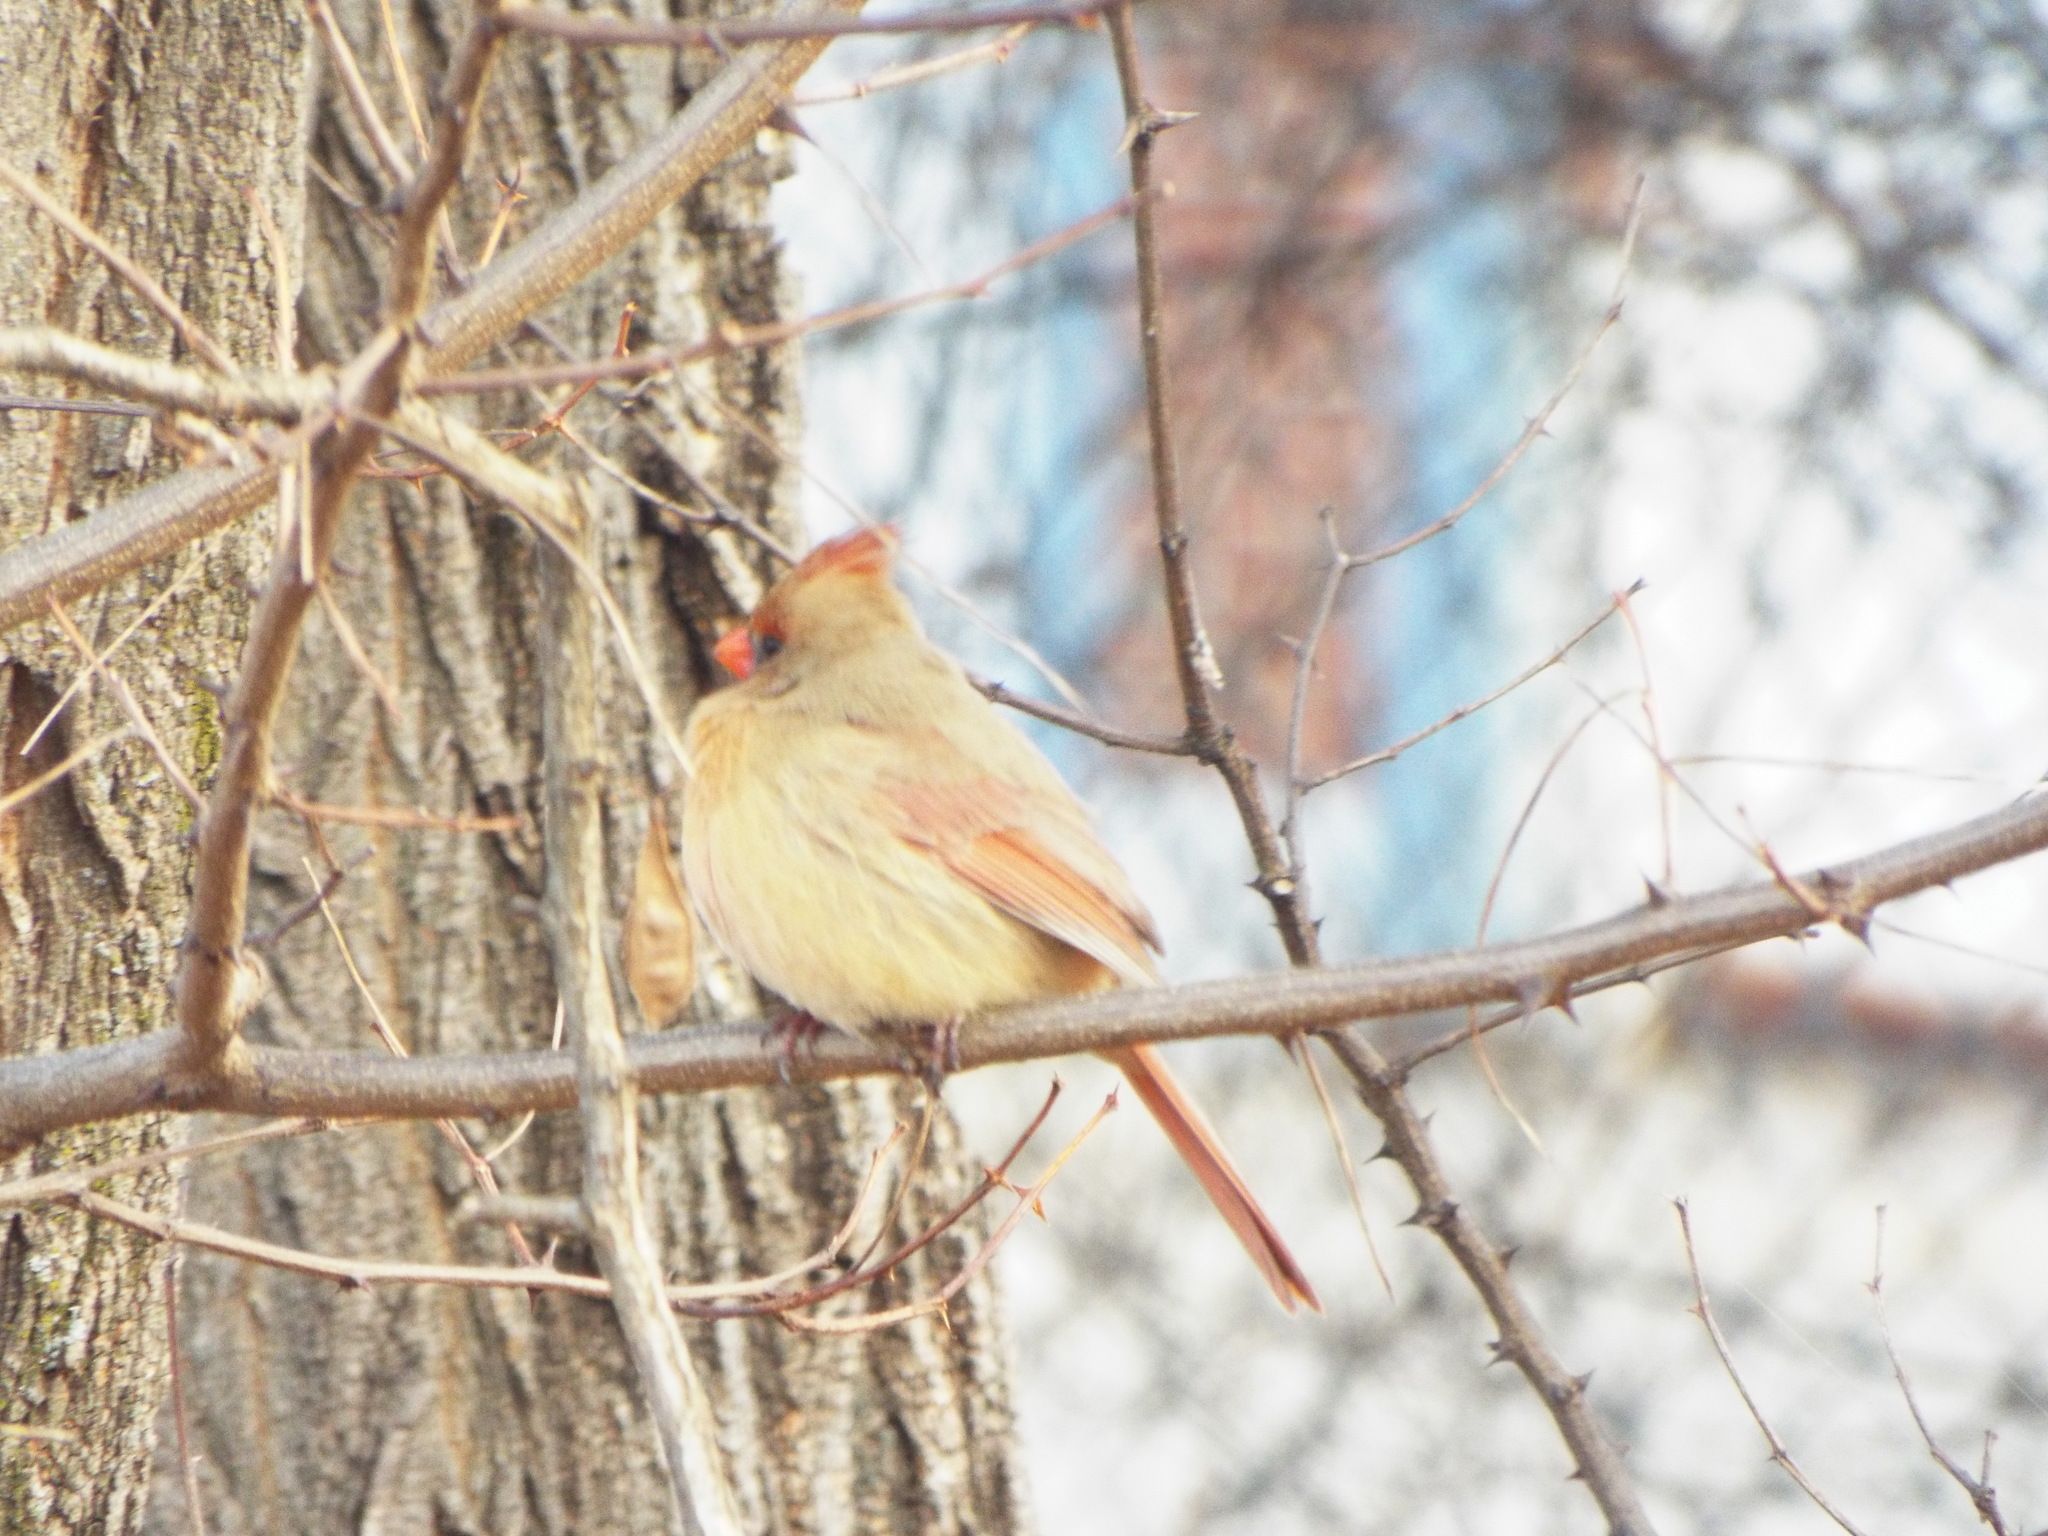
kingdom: Animalia
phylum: Chordata
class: Aves
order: Passeriformes
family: Cardinalidae
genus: Cardinalis
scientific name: Cardinalis cardinalis
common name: Northern cardinal
